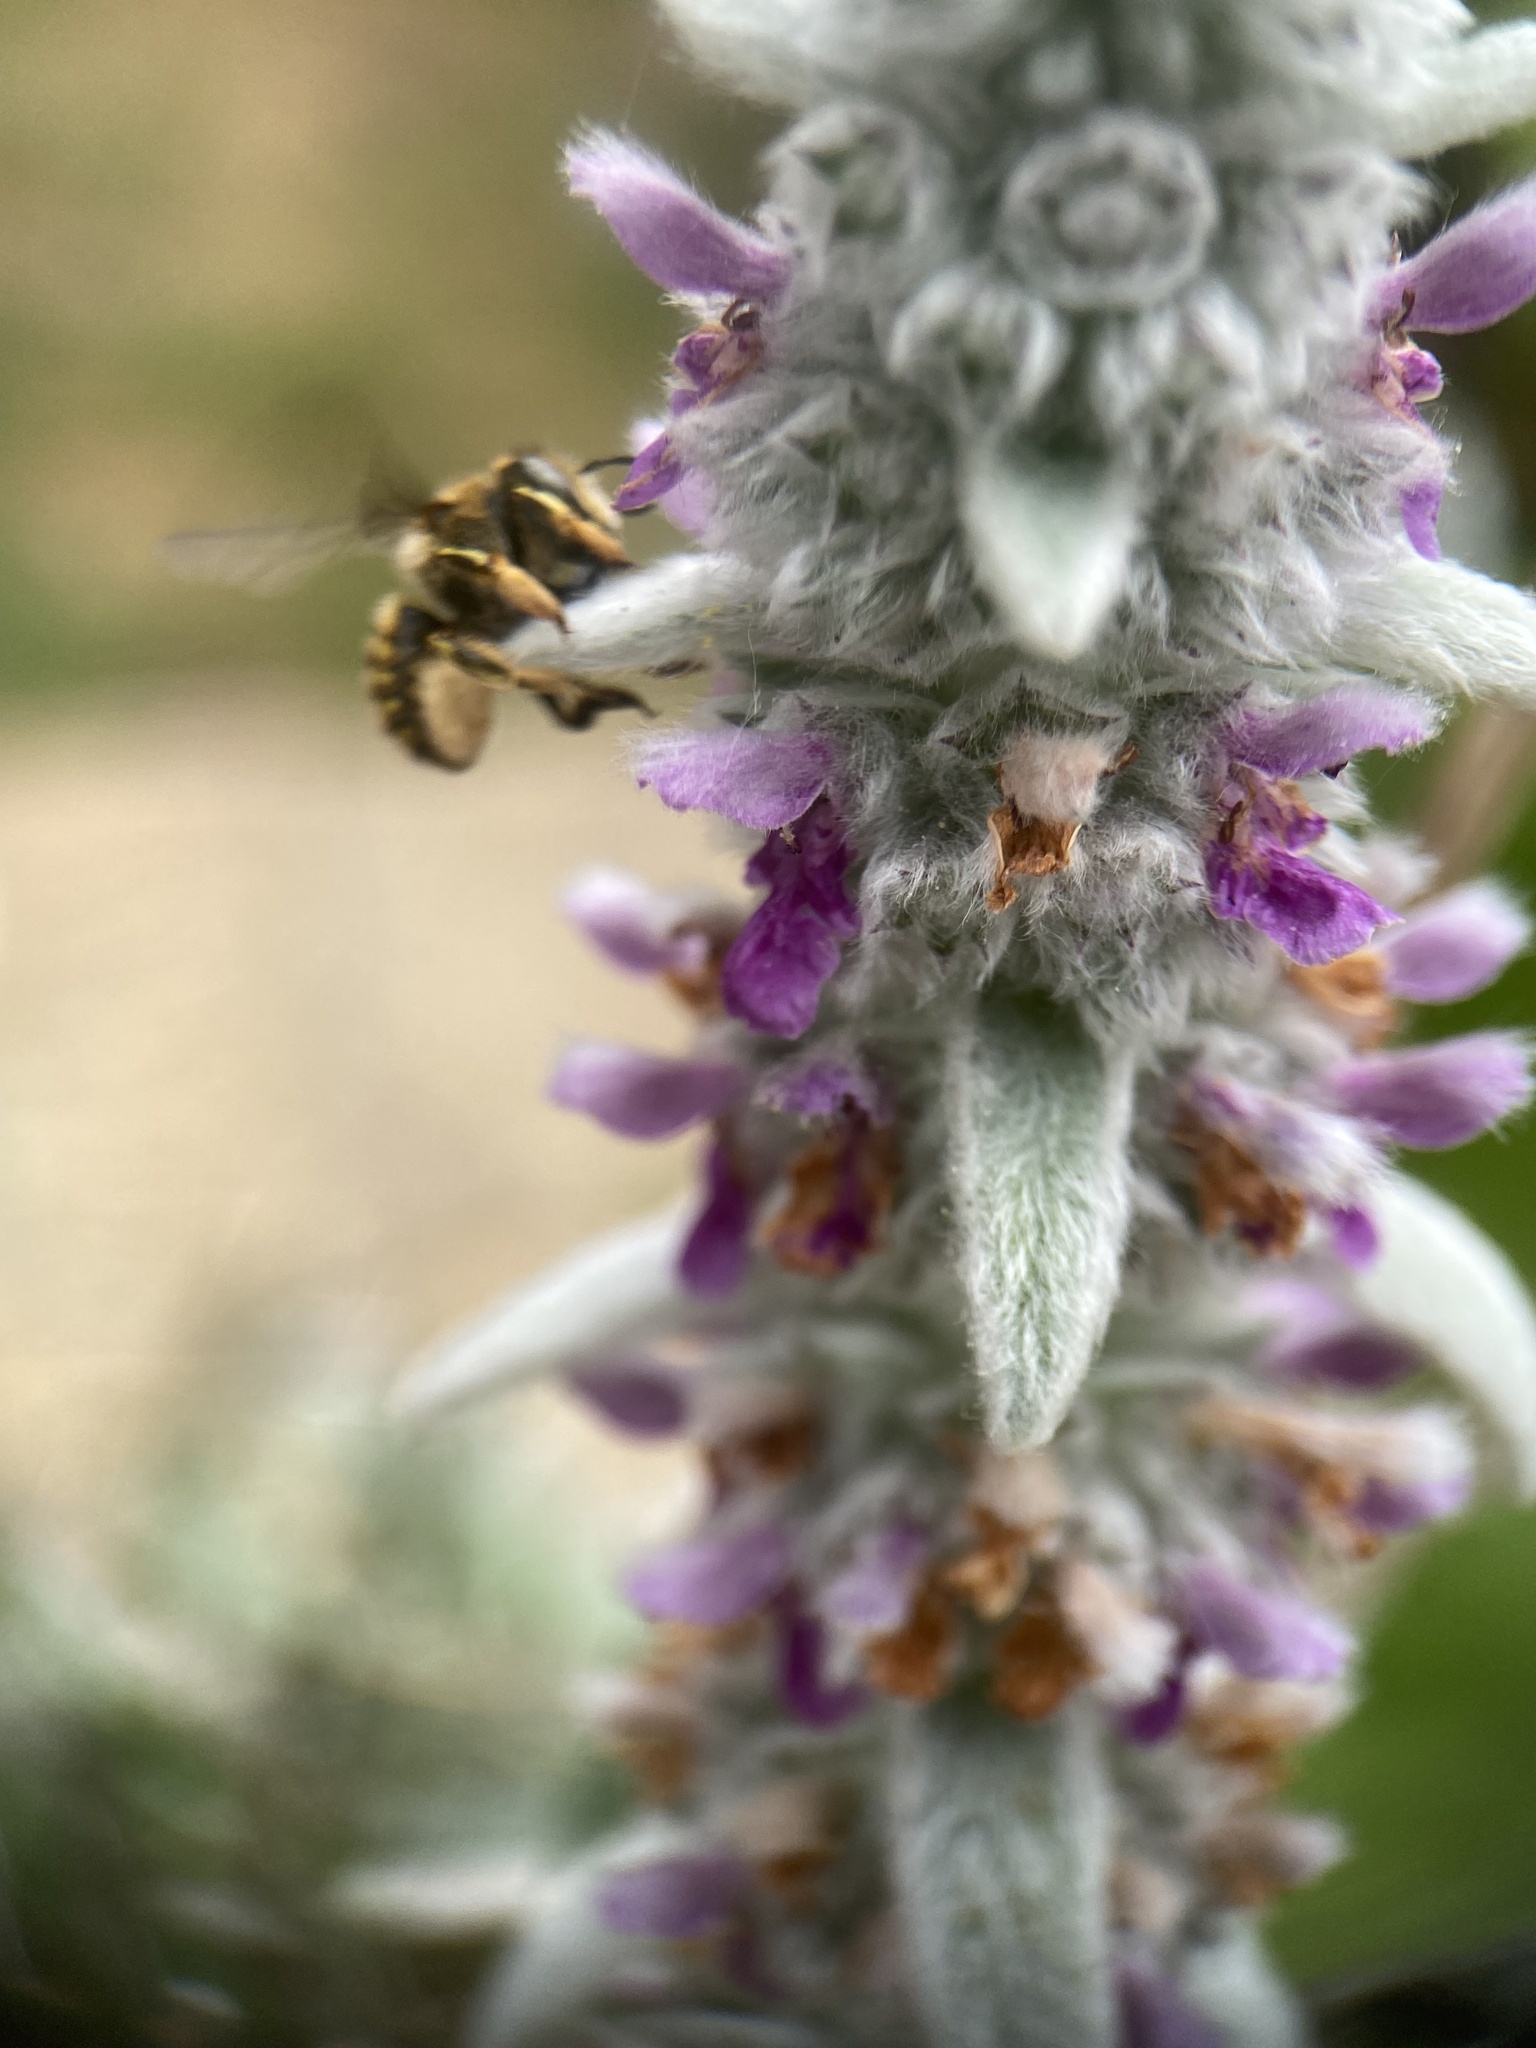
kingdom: Animalia
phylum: Arthropoda
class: Insecta
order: Hymenoptera
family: Megachilidae
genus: Anthidium
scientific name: Anthidium manicatum
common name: Wool carder bee
